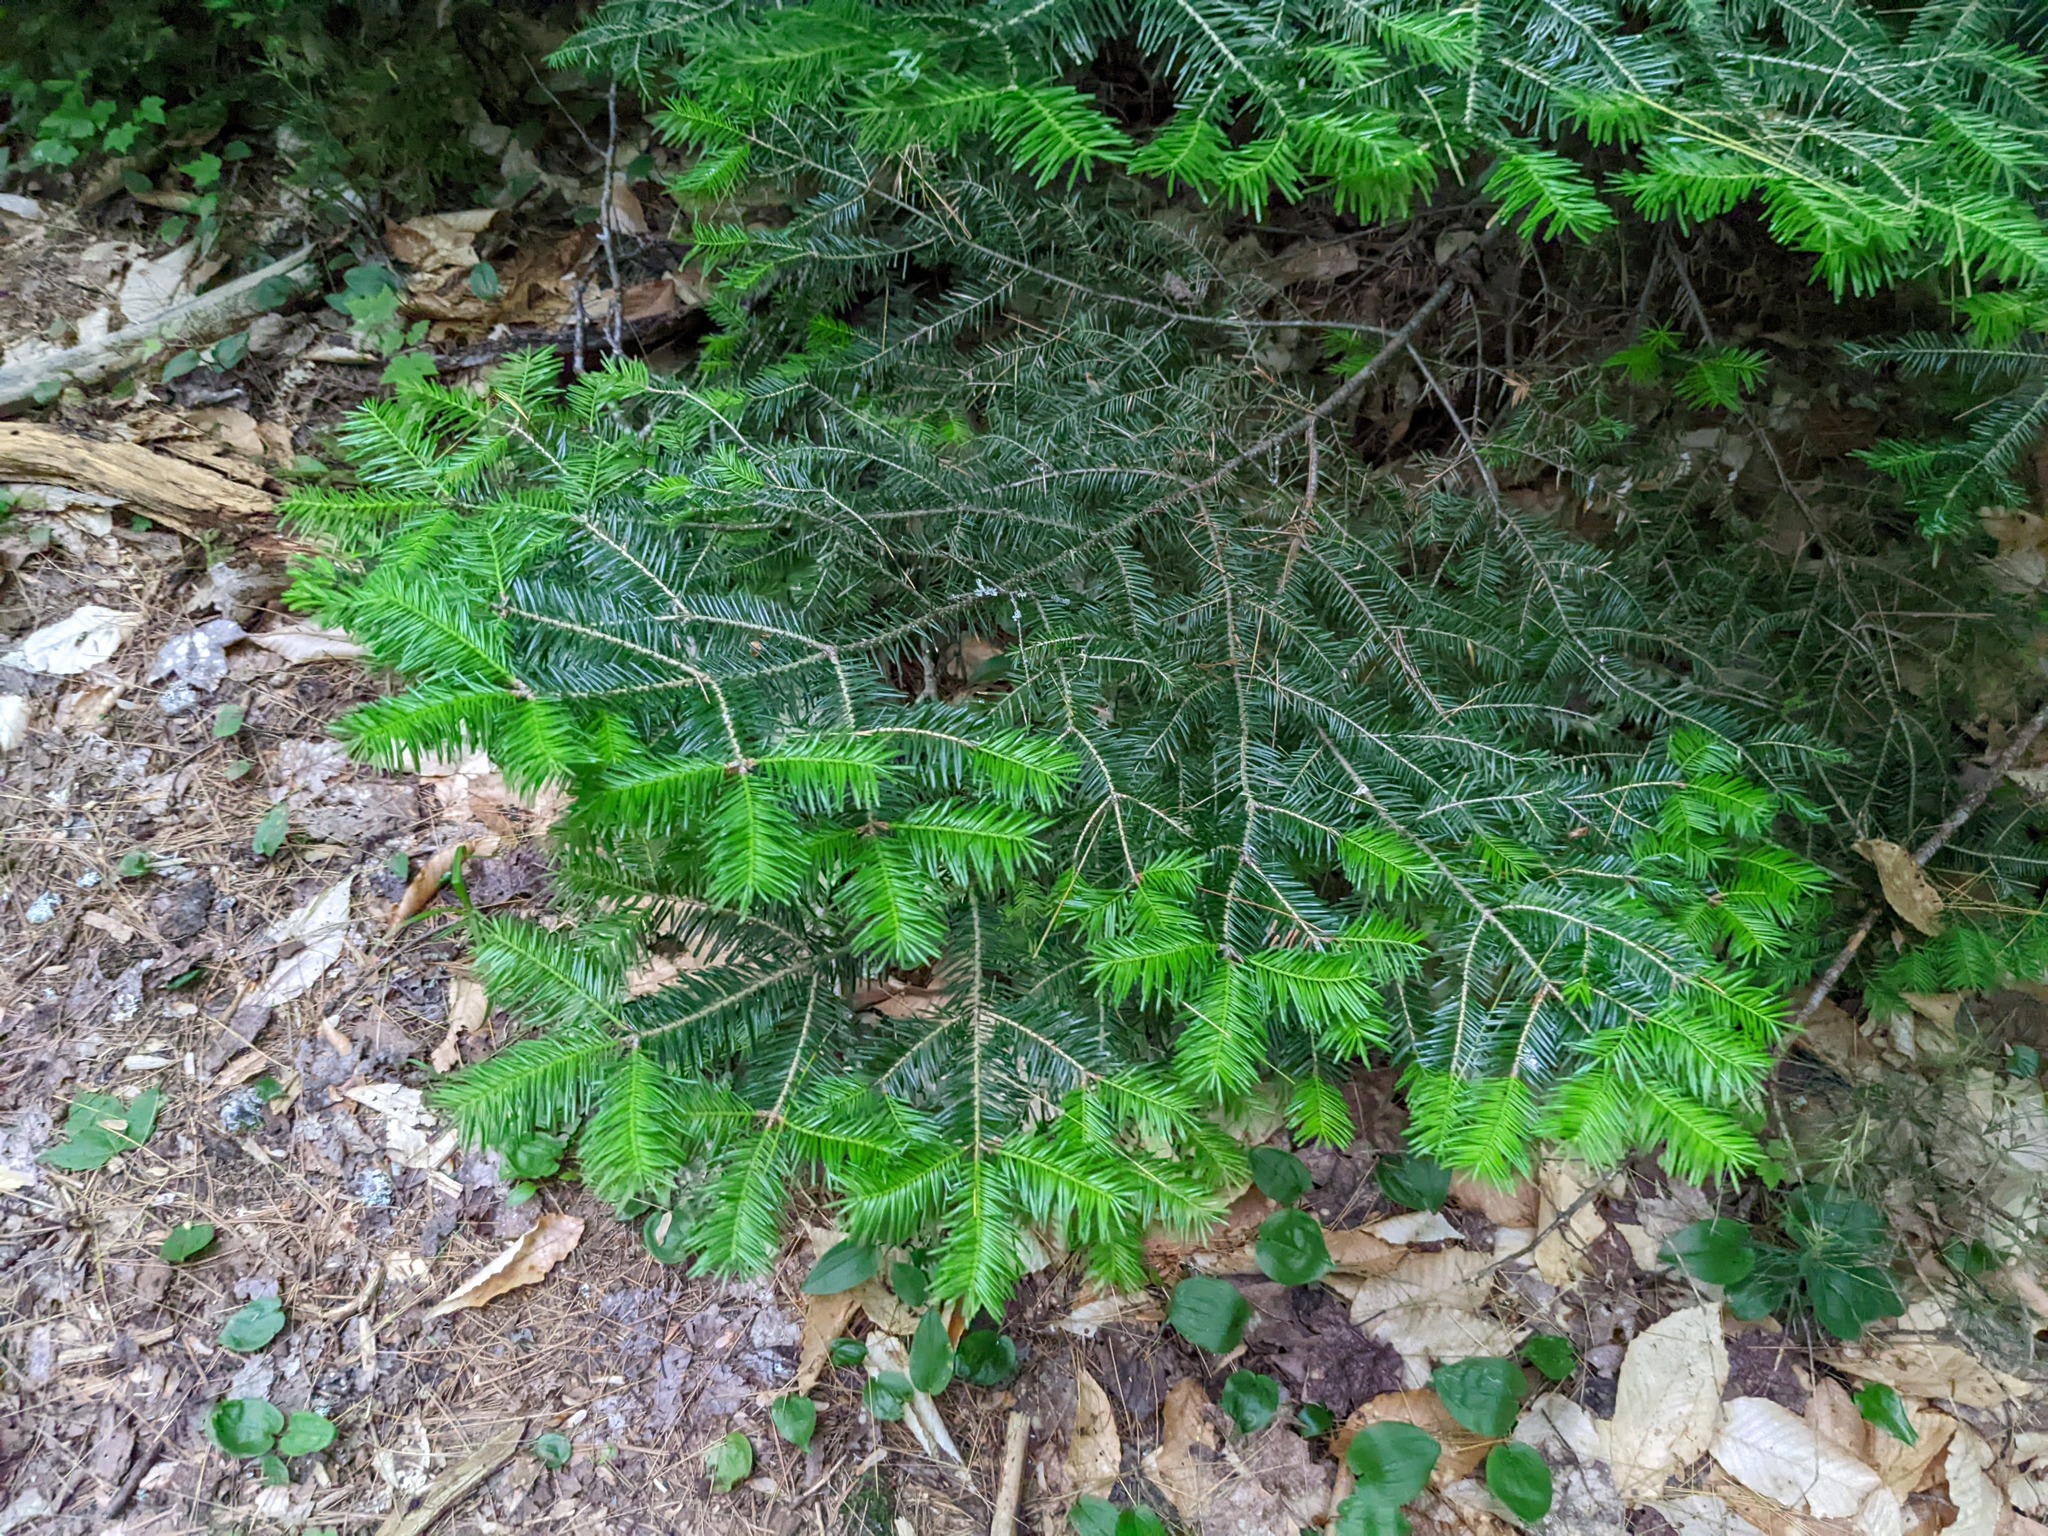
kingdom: Plantae
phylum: Tracheophyta
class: Pinopsida
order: Pinales
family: Pinaceae
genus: Abies
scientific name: Abies balsamea
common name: Balsam fir
